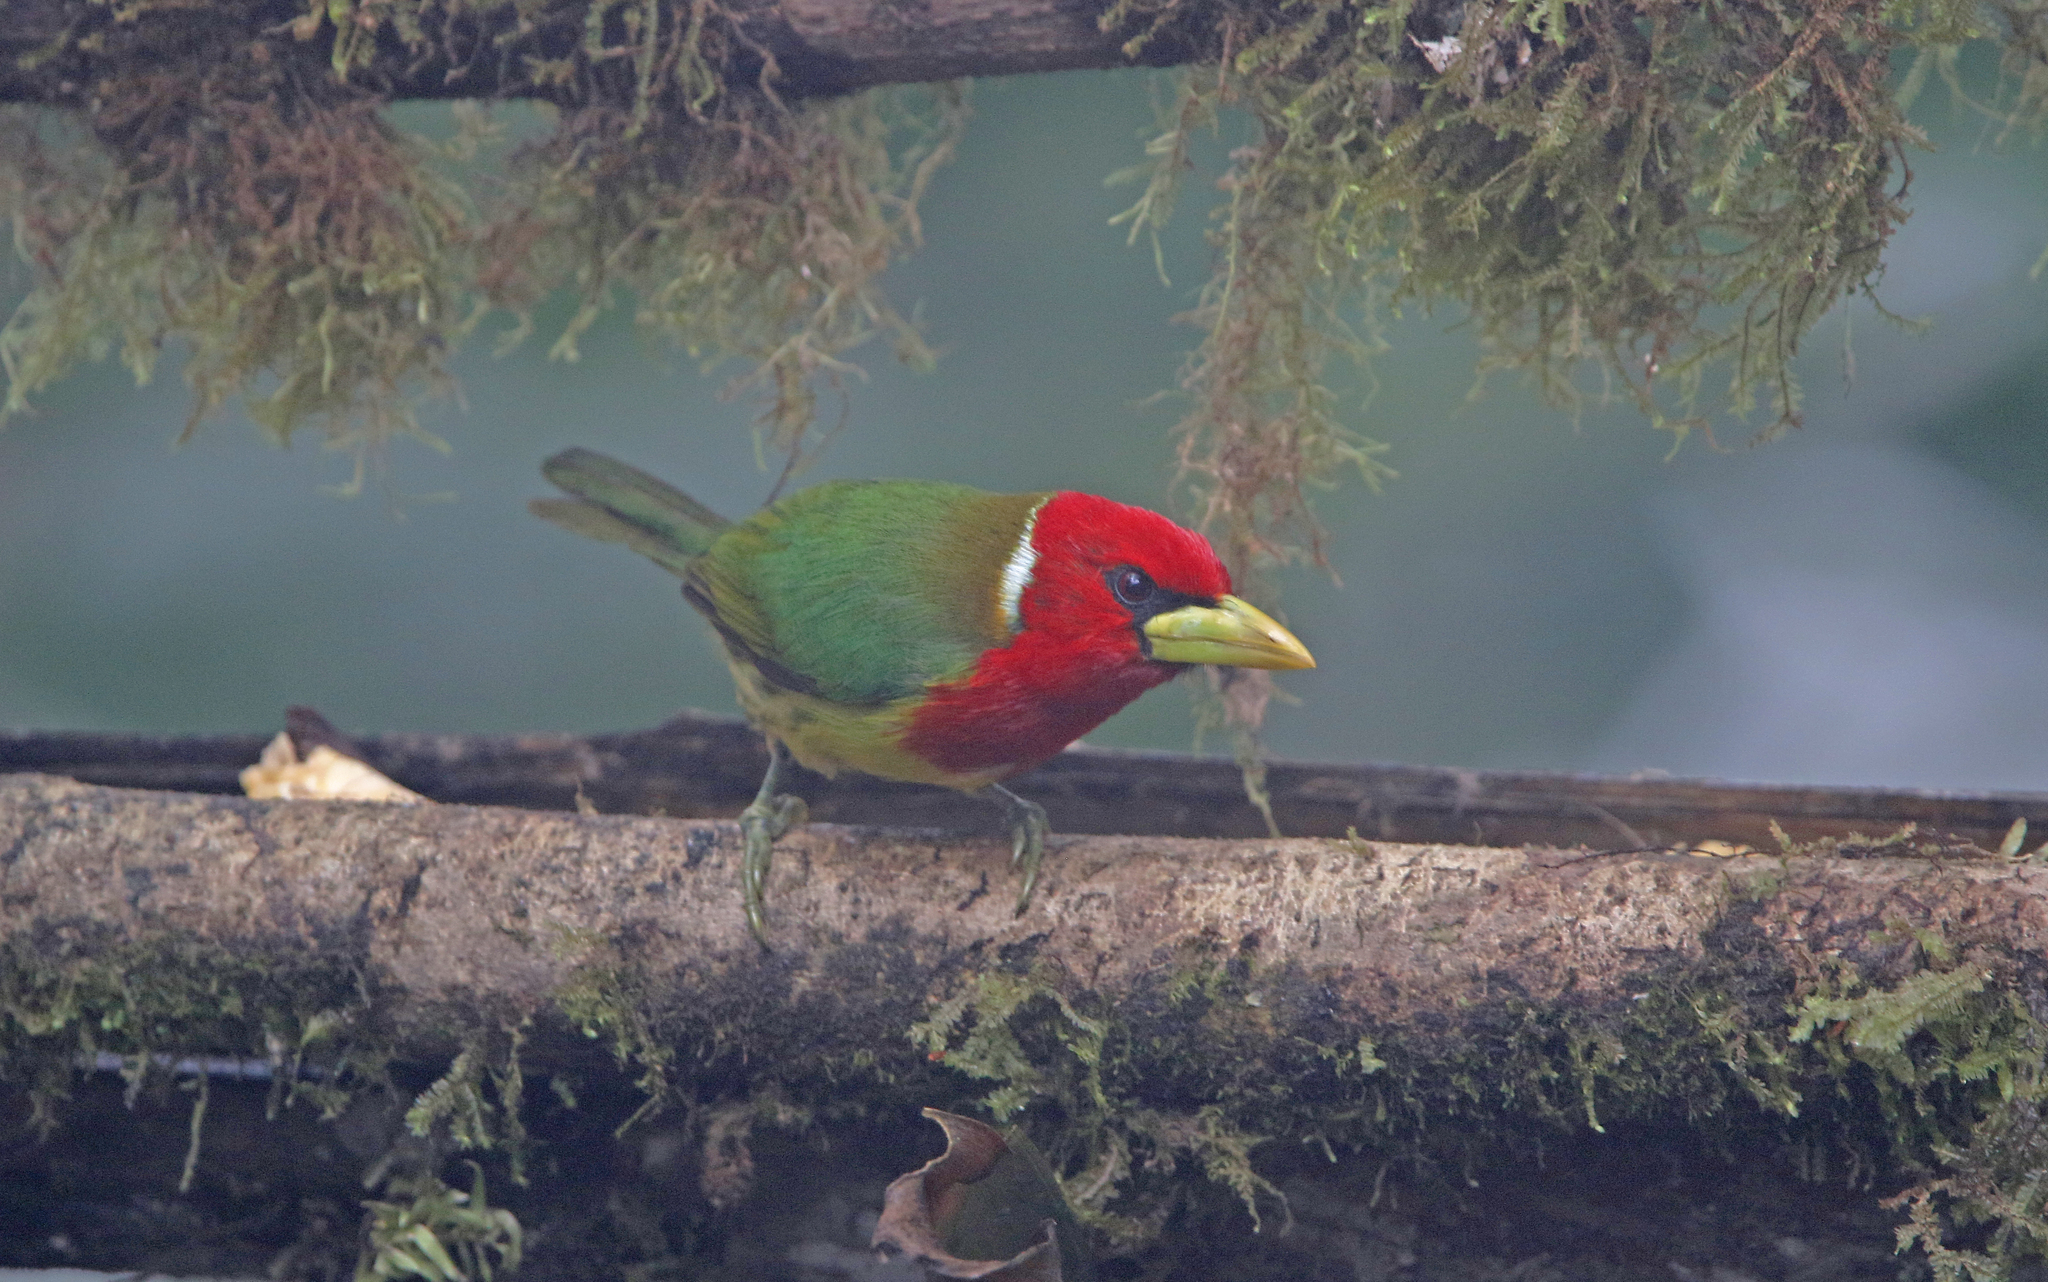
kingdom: Animalia
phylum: Chordata
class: Aves
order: Piciformes
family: Capitonidae
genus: Eubucco
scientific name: Eubucco bourcierii
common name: Red-headed barbet
